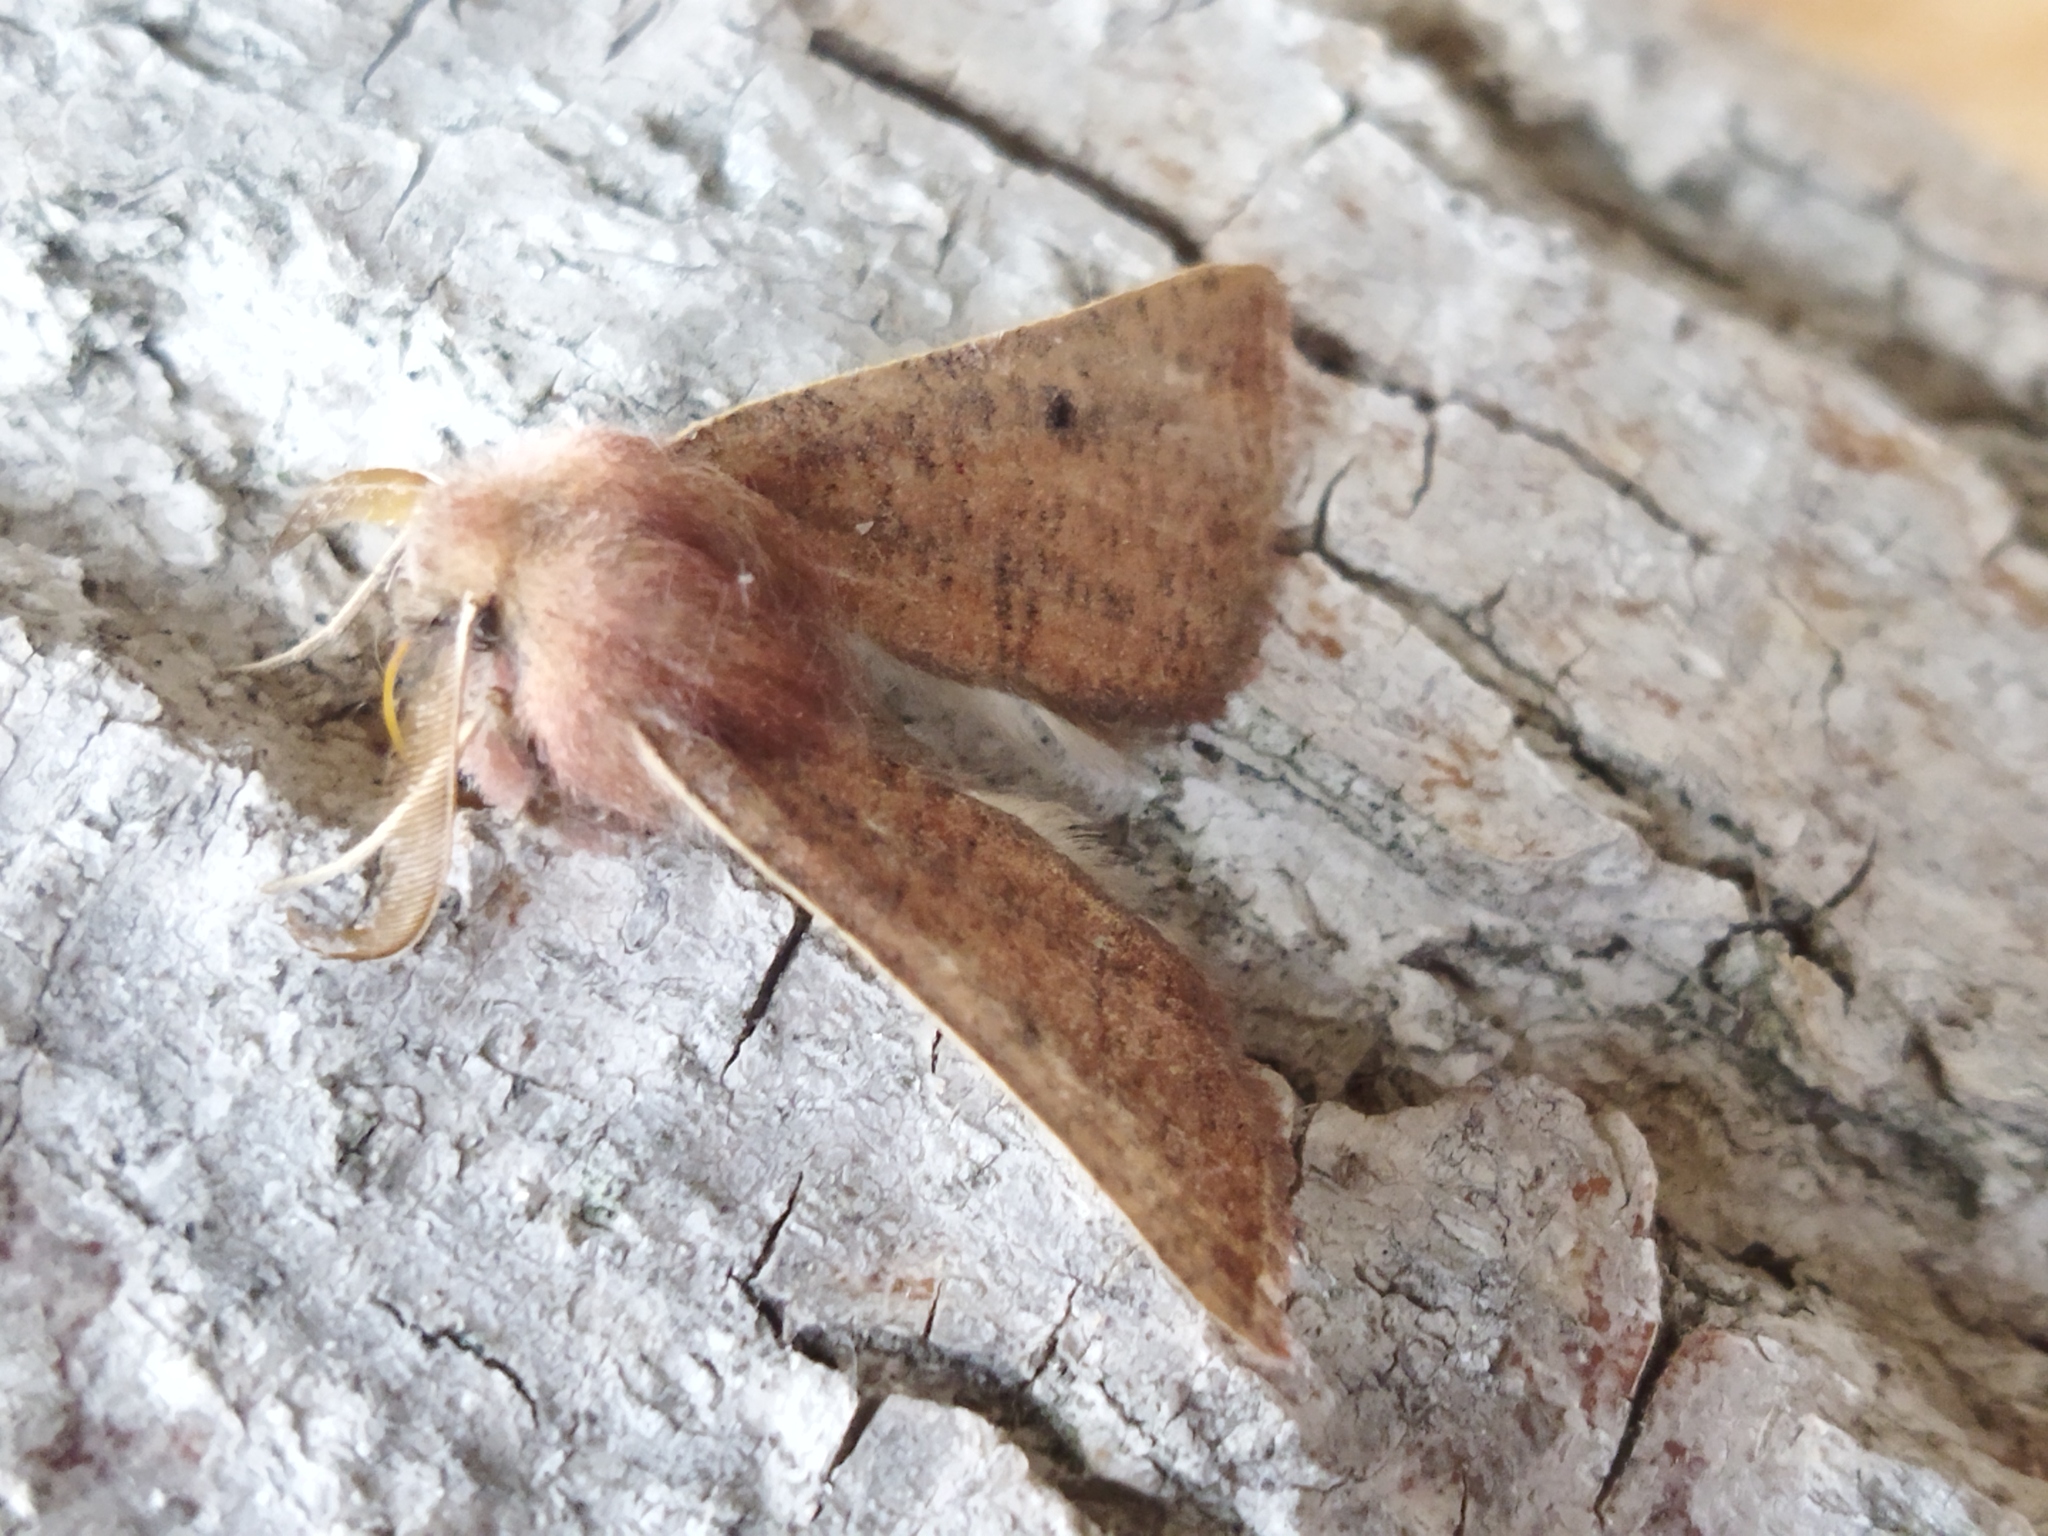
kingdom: Animalia
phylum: Arthropoda
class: Insecta
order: Lepidoptera
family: Geometridae
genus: Dasycorsa
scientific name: Dasycorsa modesta
